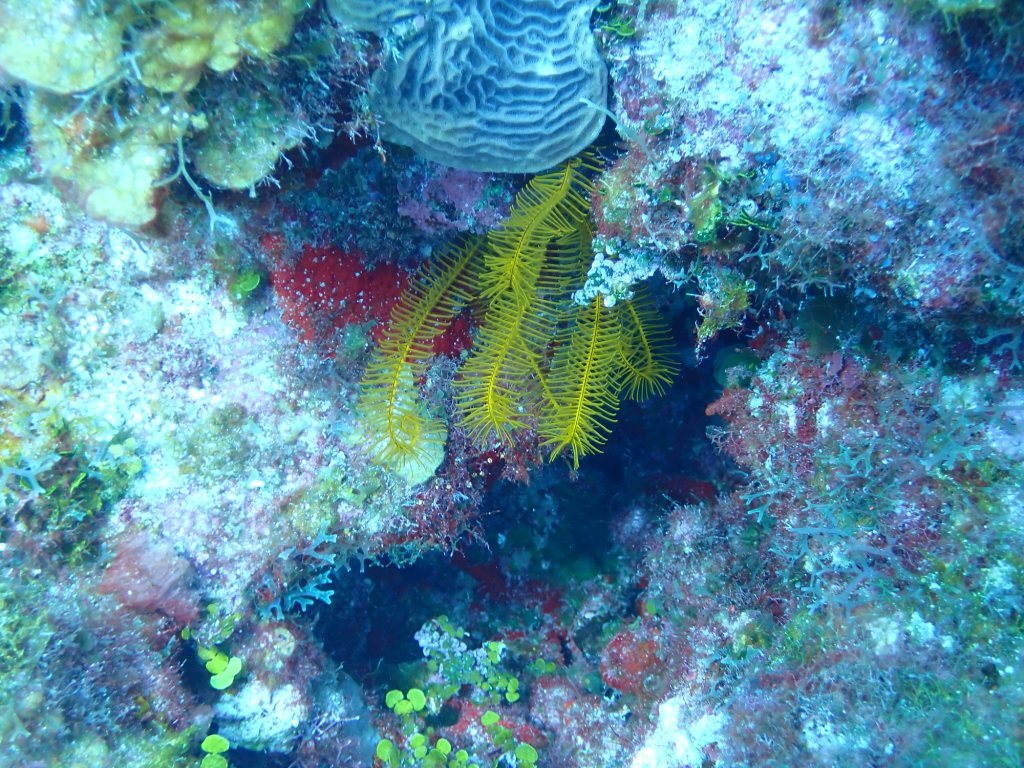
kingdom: Animalia
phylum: Echinodermata
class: Crinoidea
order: Comatulida
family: Comatulidae
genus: Davidaster
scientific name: Davidaster rubiginosus
